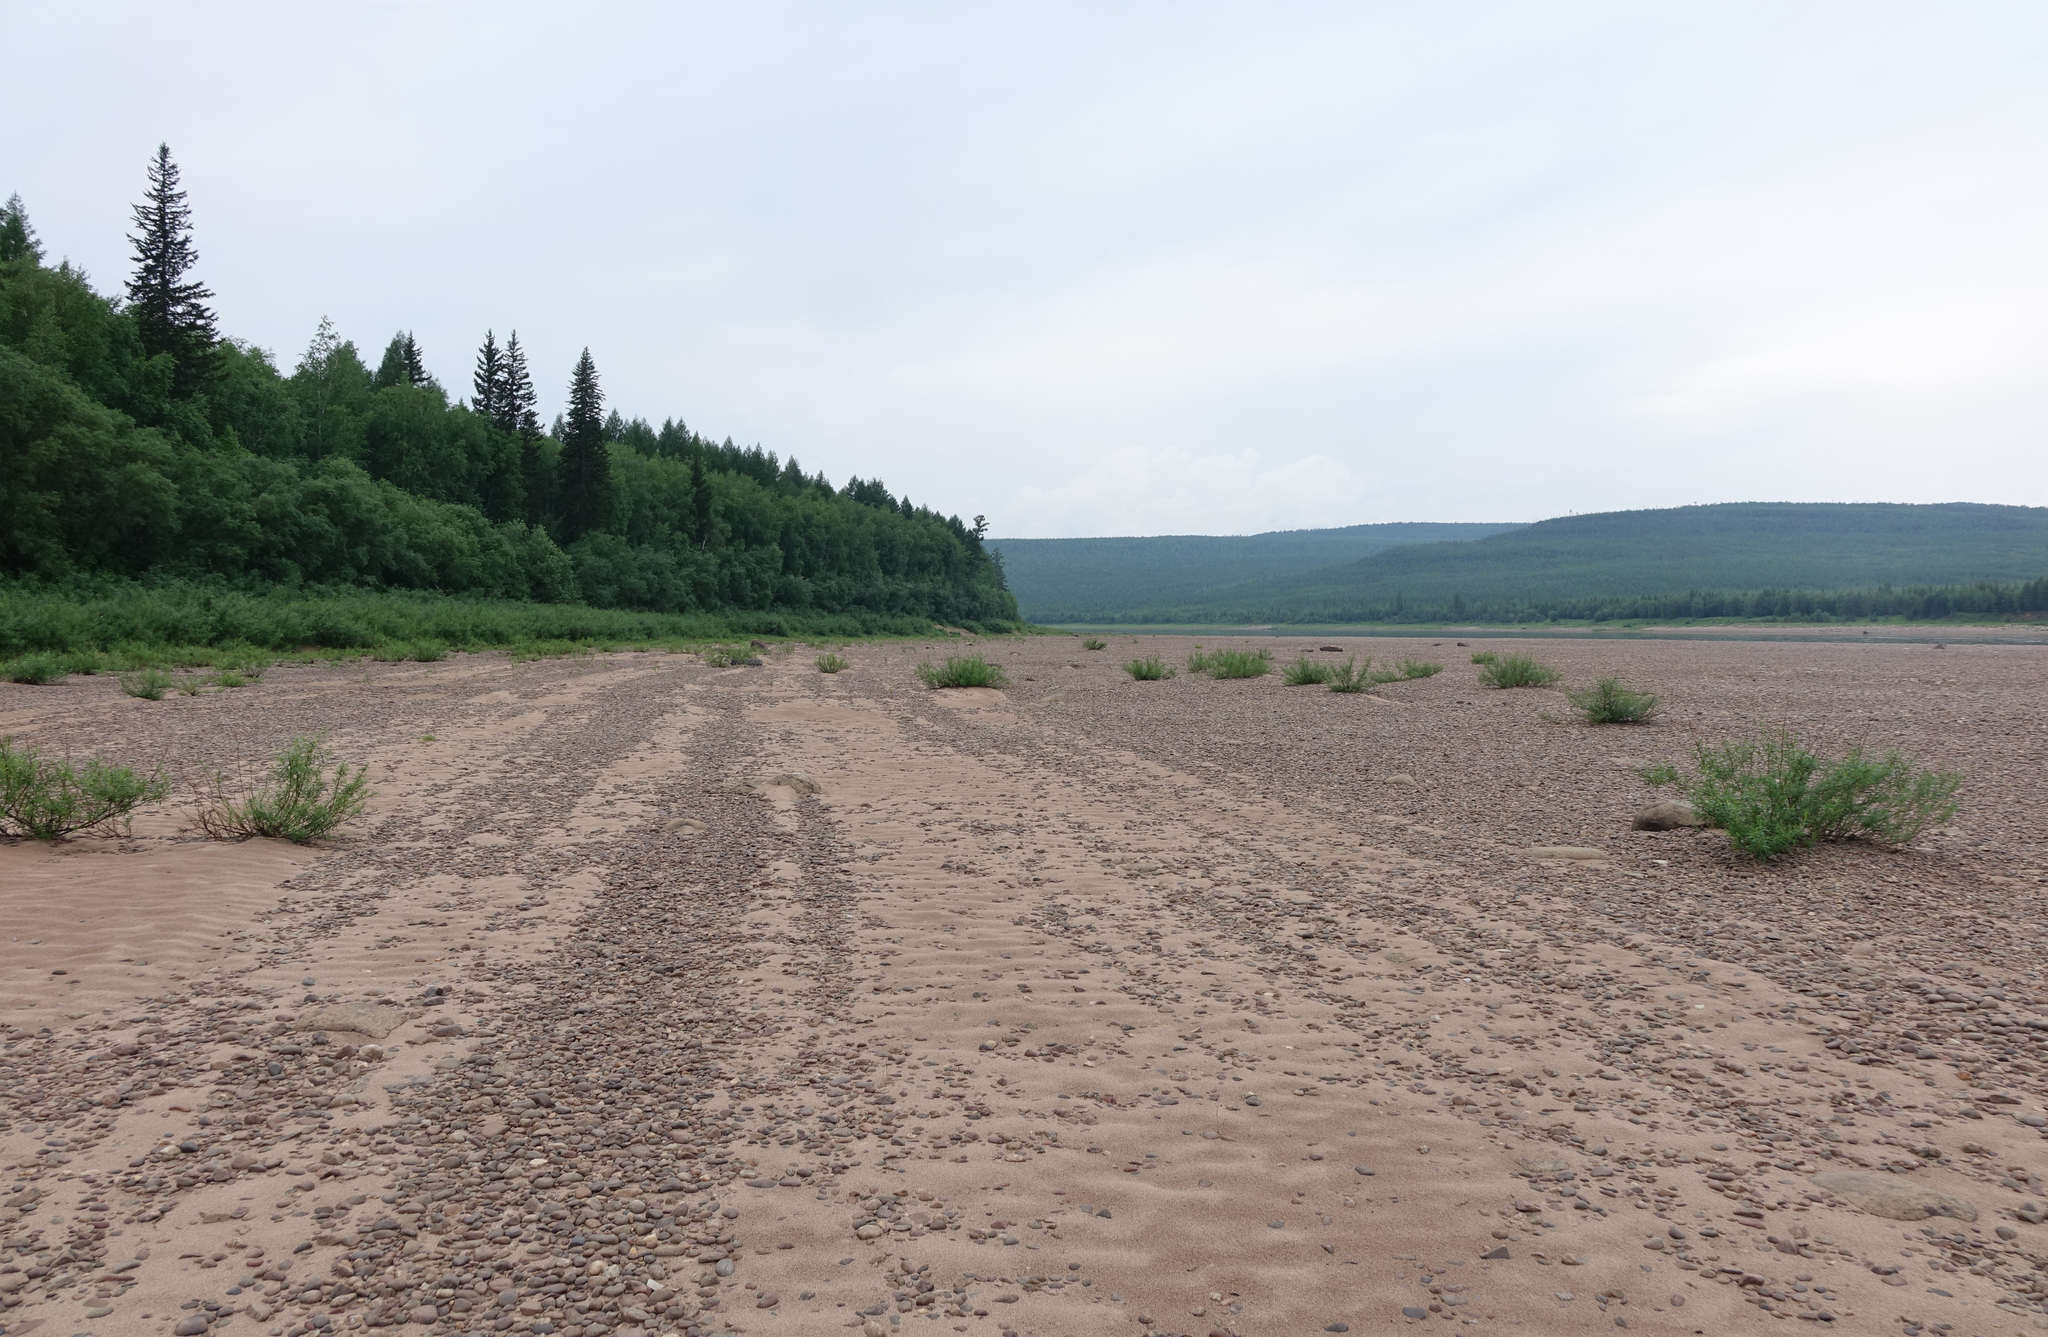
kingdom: Plantae
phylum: Tracheophyta
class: Pinopsida
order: Pinales
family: Pinaceae
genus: Picea
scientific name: Picea obovata
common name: Siberian spruce
